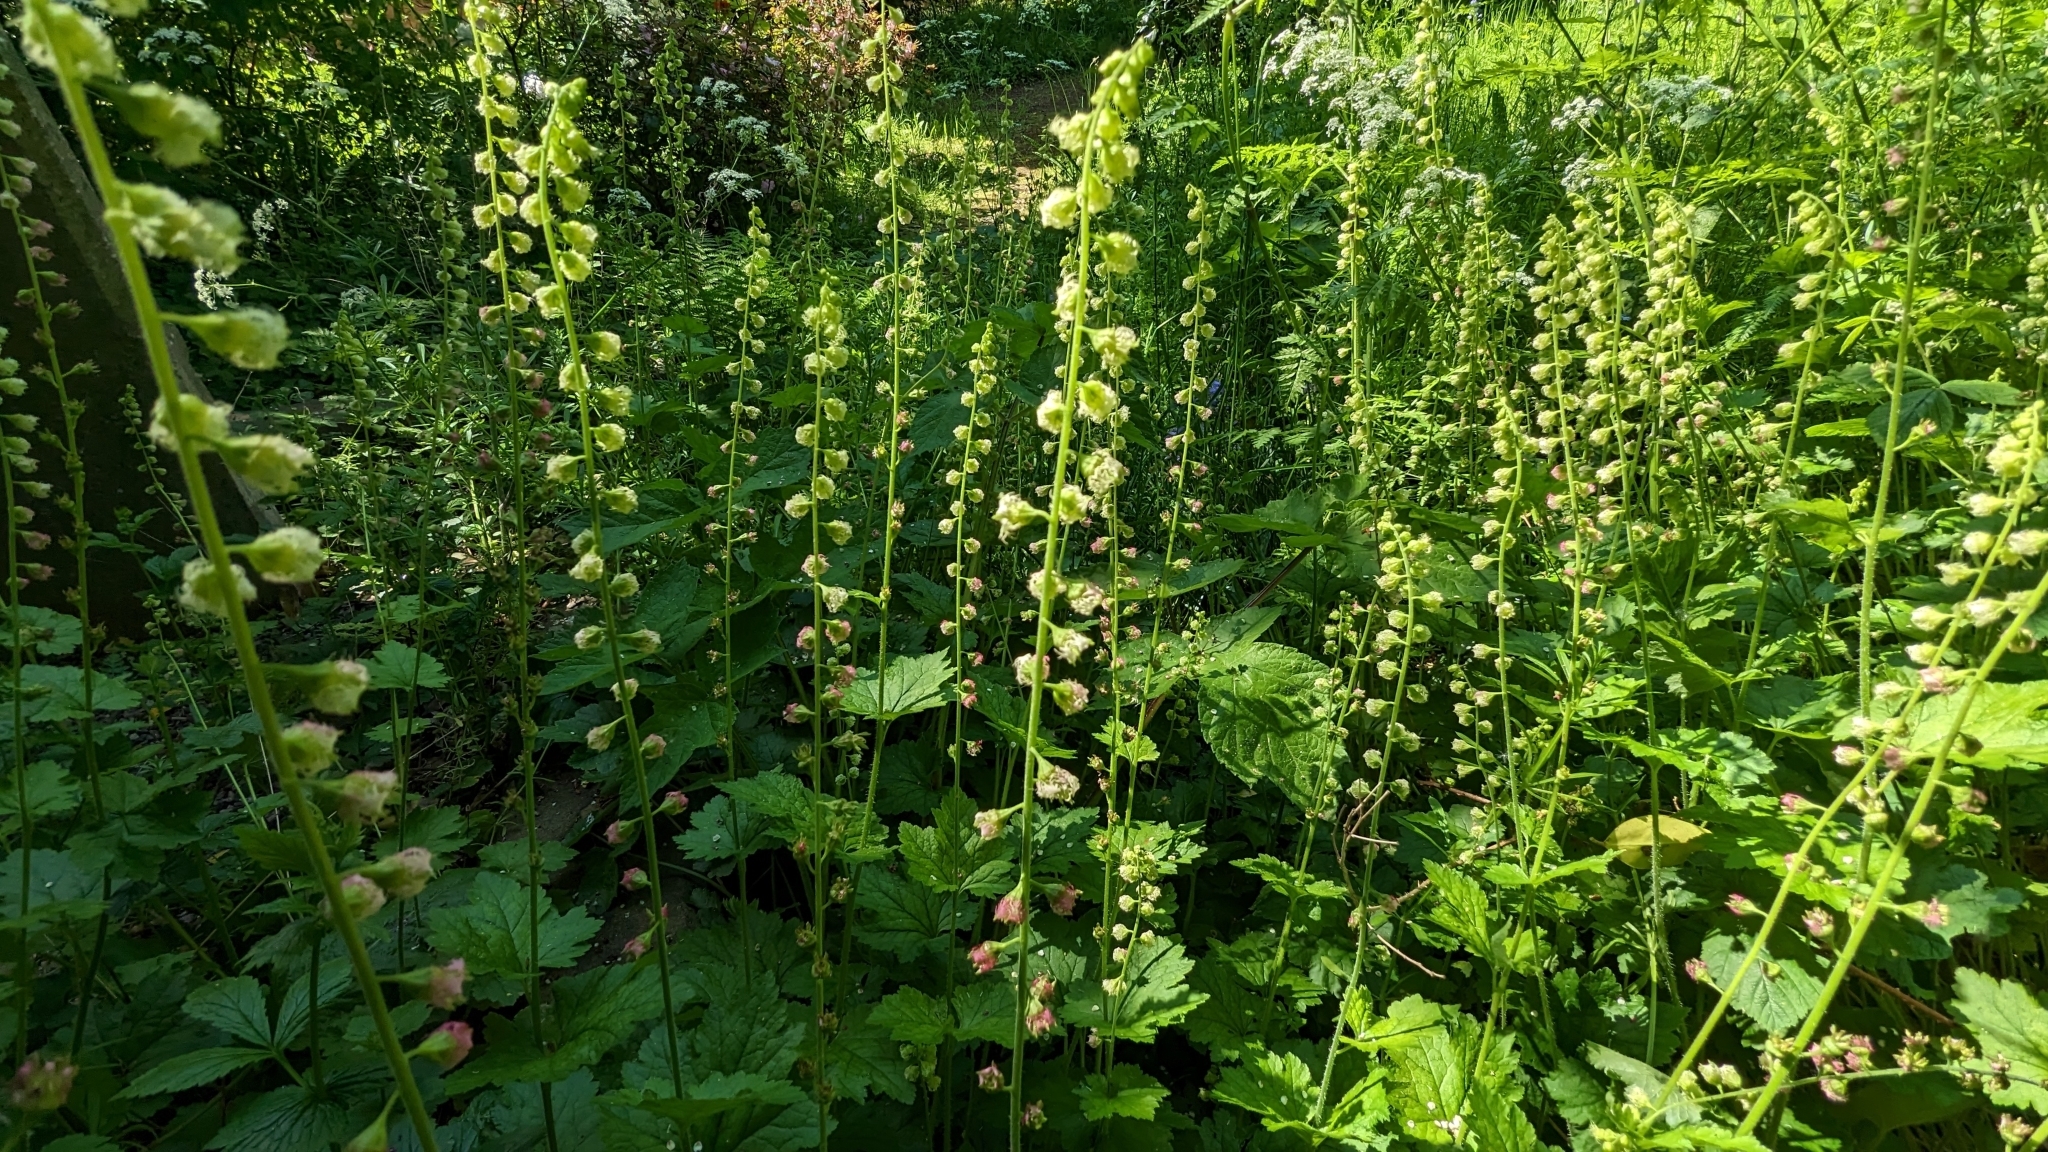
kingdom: Plantae
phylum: Tracheophyta
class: Magnoliopsida
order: Saxifragales
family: Saxifragaceae
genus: Tellima
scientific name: Tellima grandiflora
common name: Fringecups
